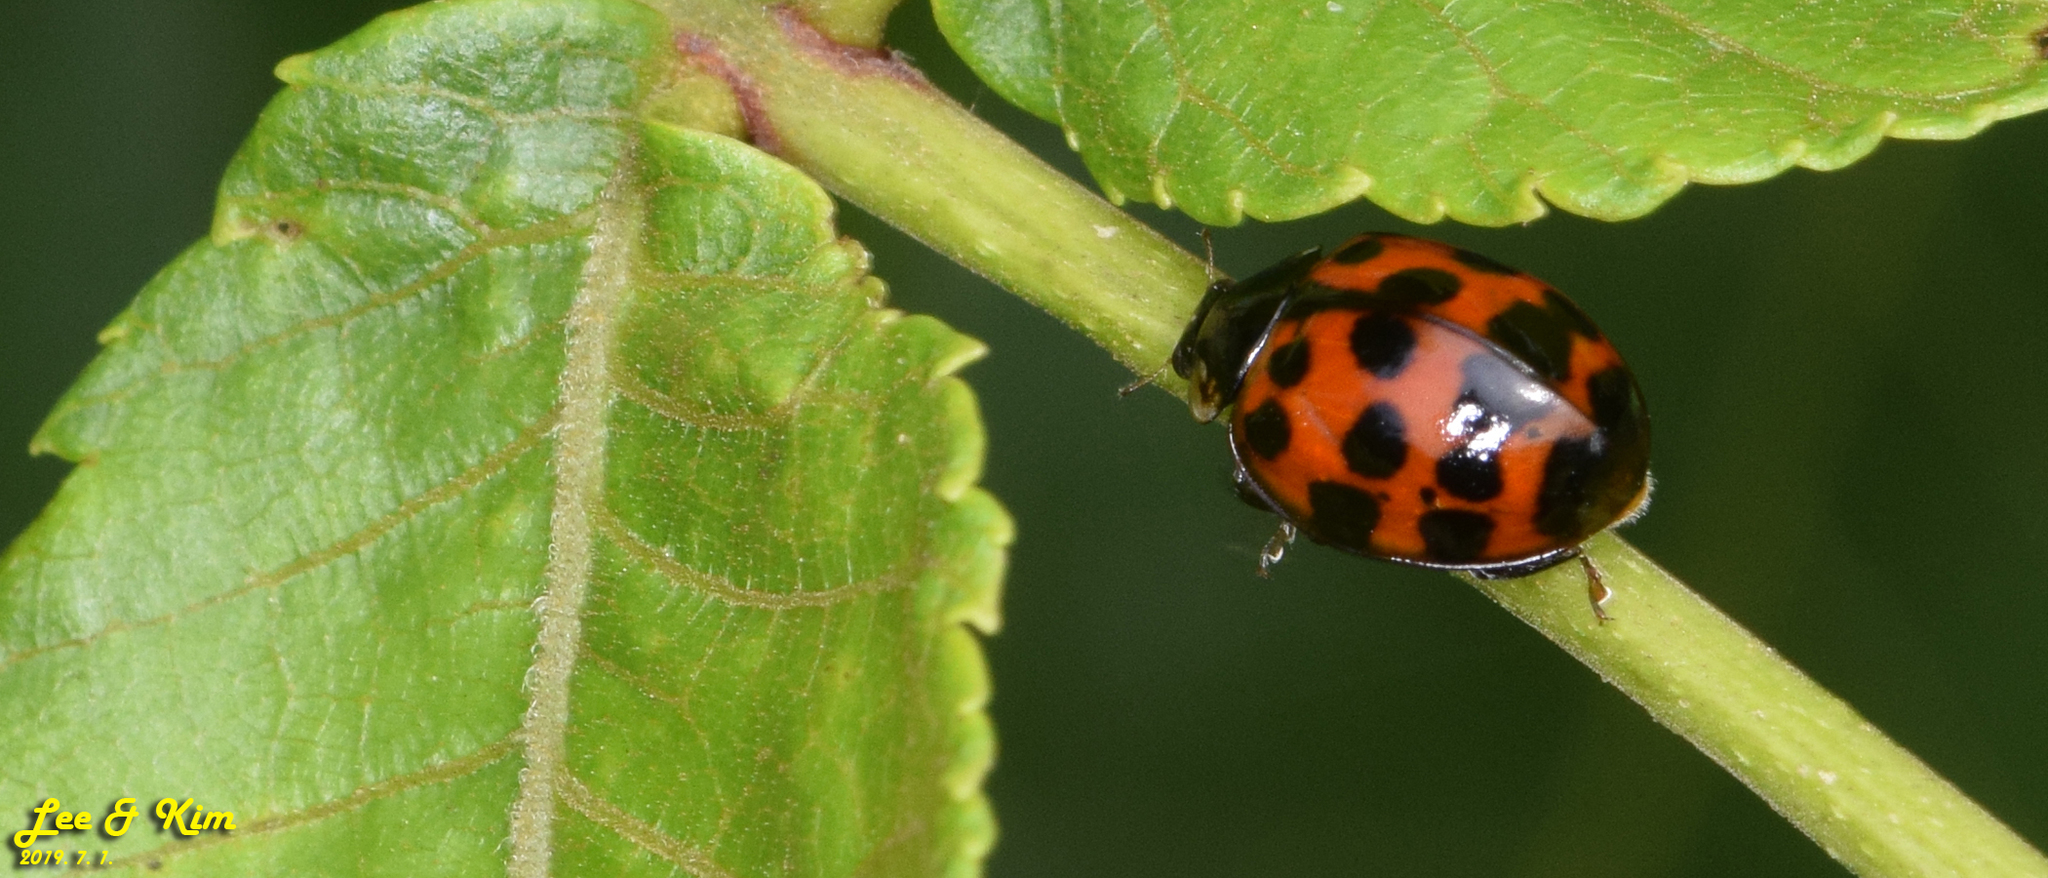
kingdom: Animalia
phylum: Arthropoda
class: Insecta
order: Coleoptera
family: Coccinellidae
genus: Harmonia
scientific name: Harmonia axyridis
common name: Harlequin ladybird
